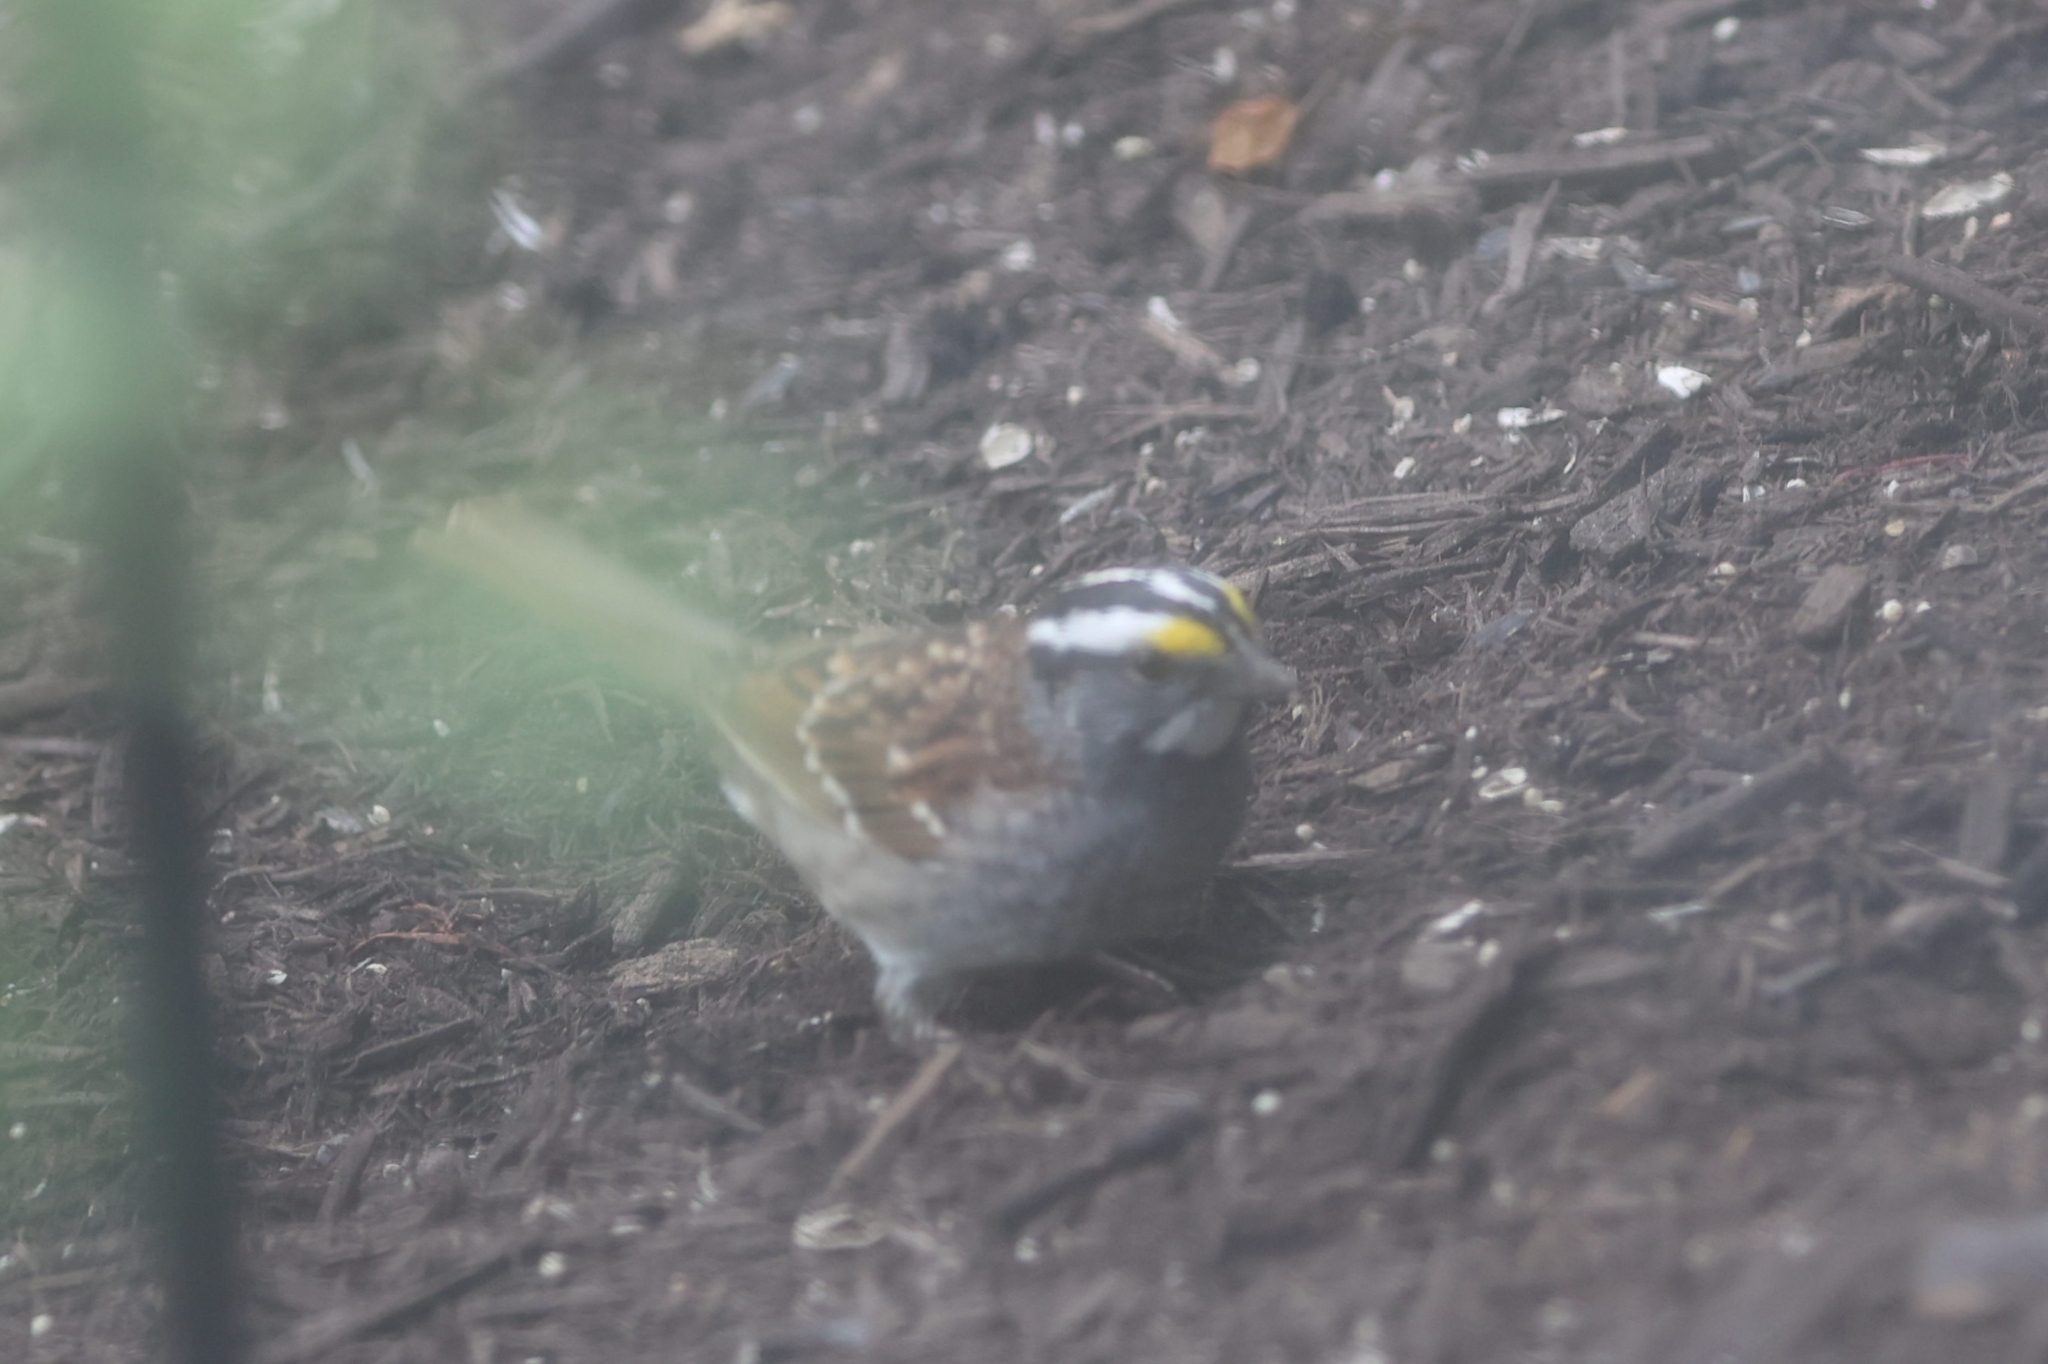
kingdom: Animalia
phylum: Chordata
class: Aves
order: Passeriformes
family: Passerellidae
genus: Zonotrichia
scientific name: Zonotrichia albicollis
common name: White-throated sparrow
